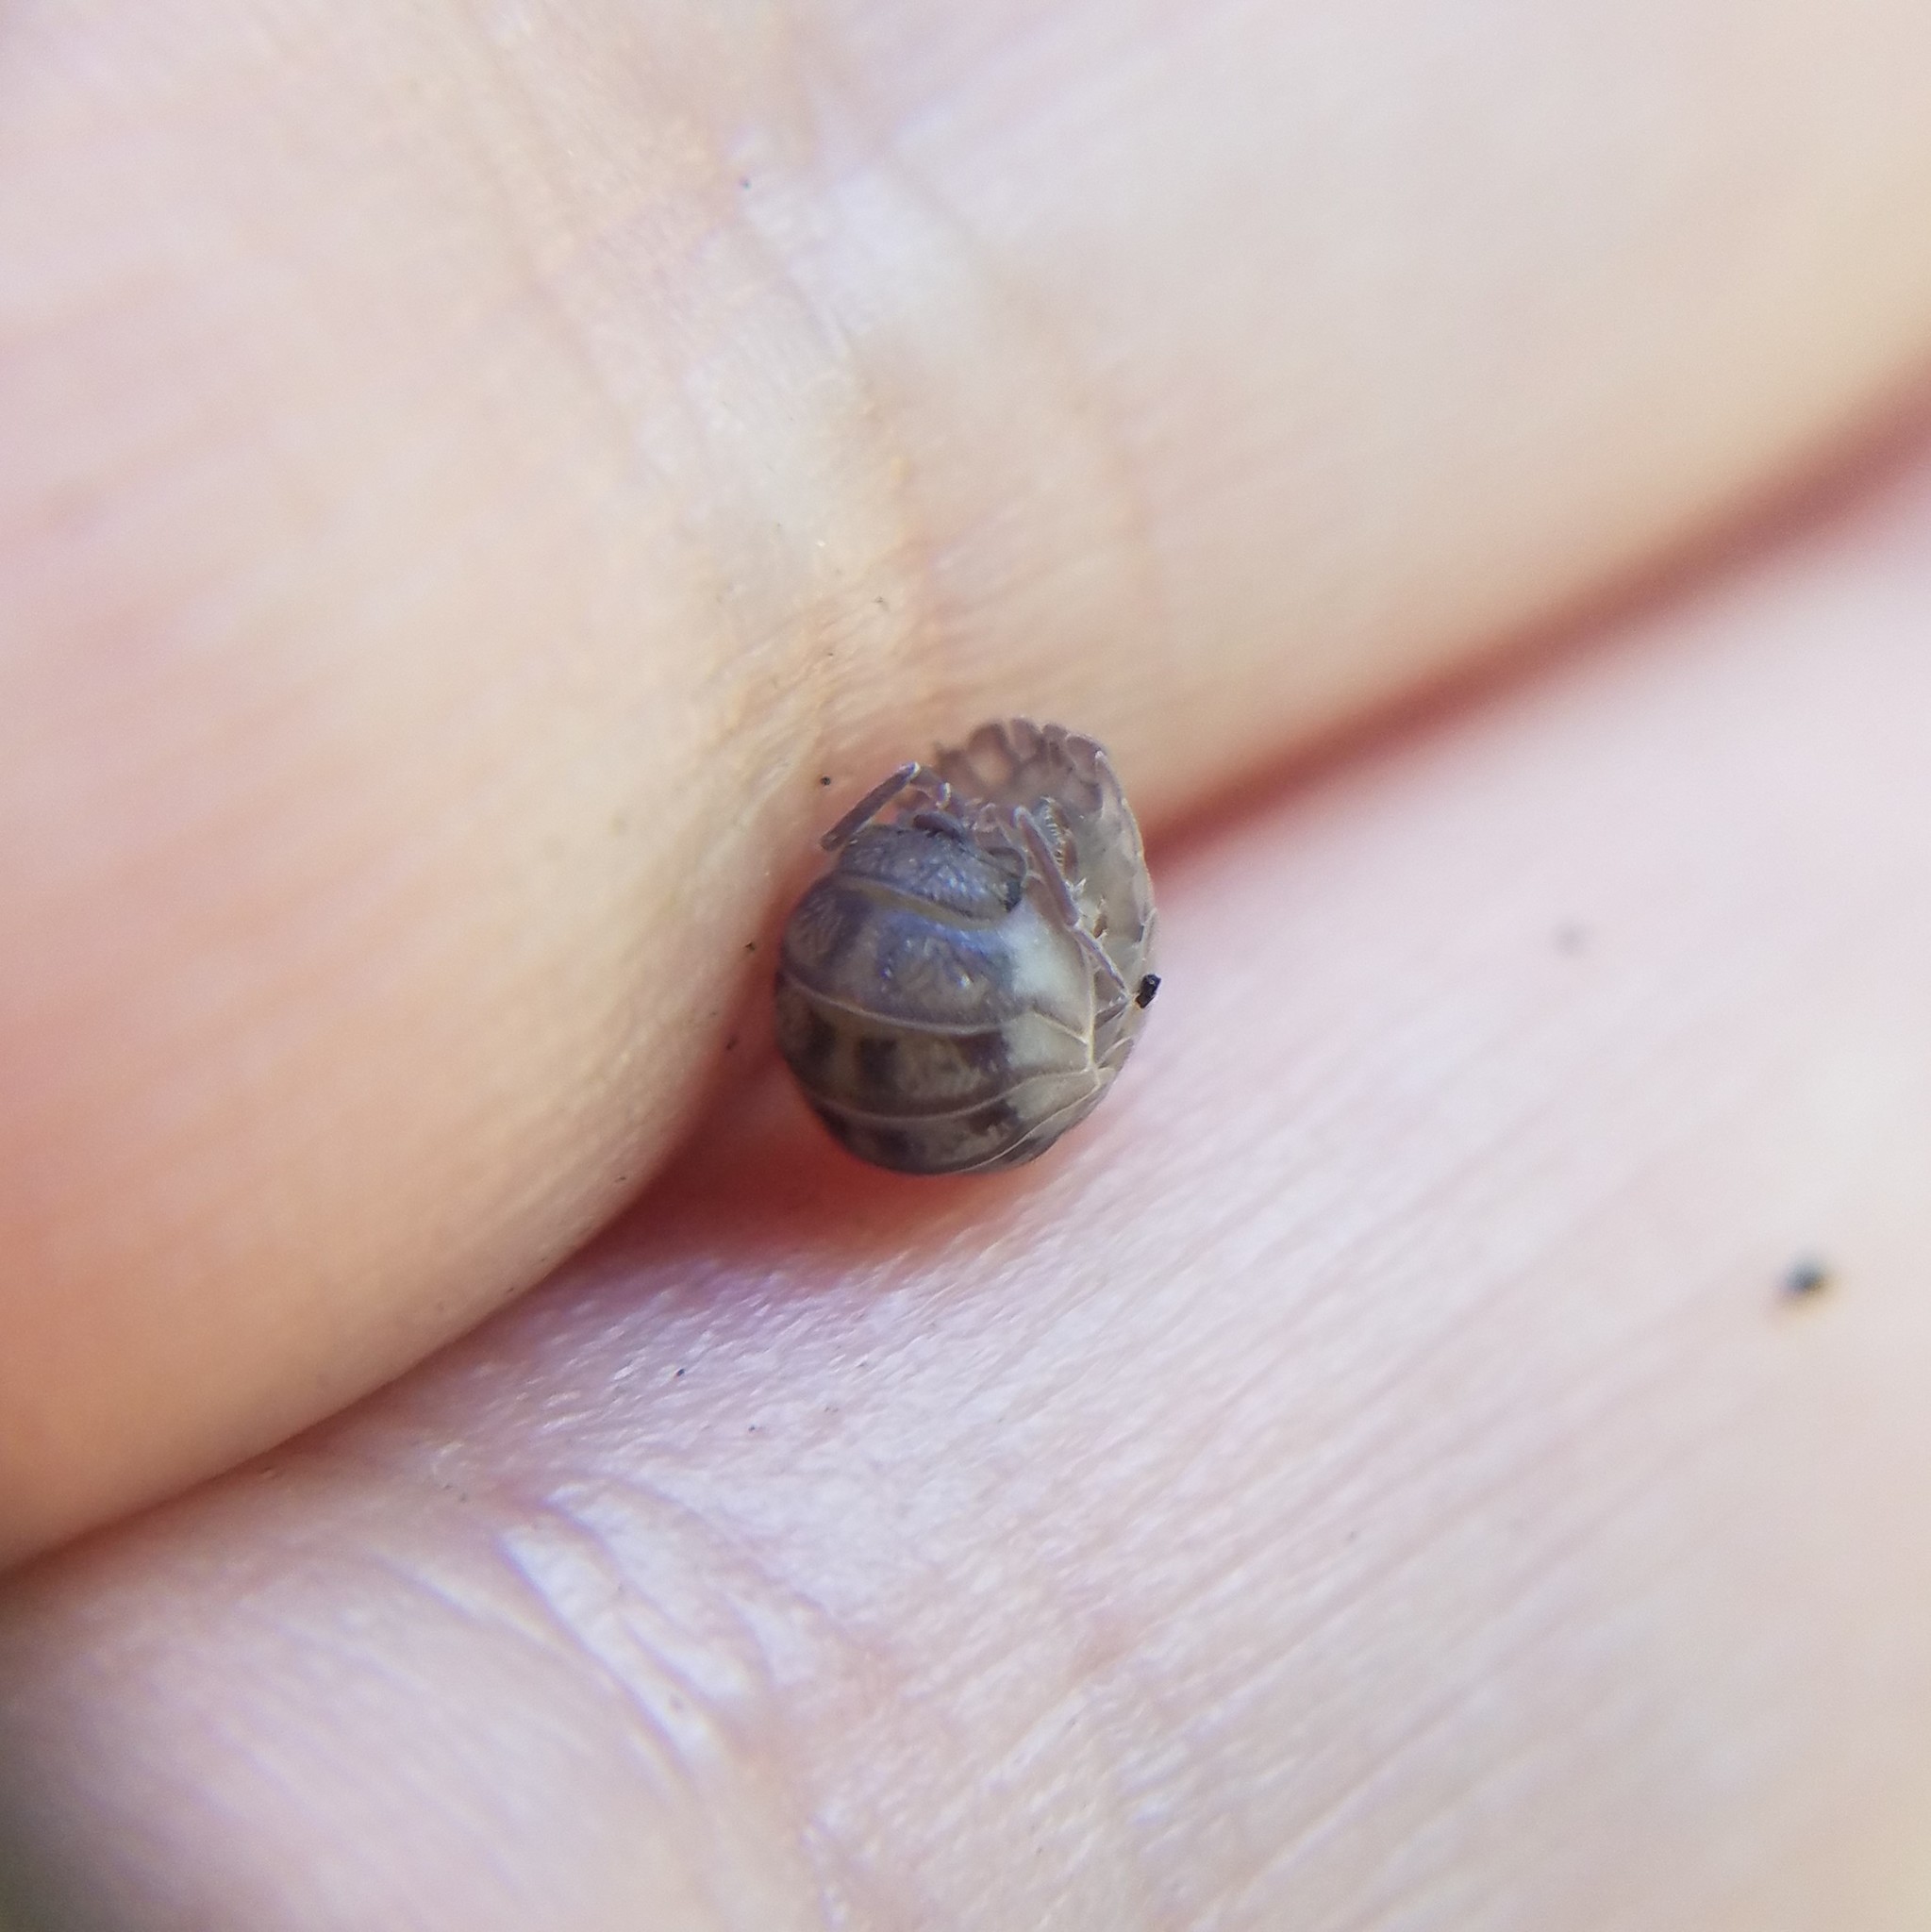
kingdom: Animalia
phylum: Arthropoda
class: Malacostraca
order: Isopoda
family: Armadillidiidae
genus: Armadillidium
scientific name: Armadillidium nasatum
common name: Isopod
